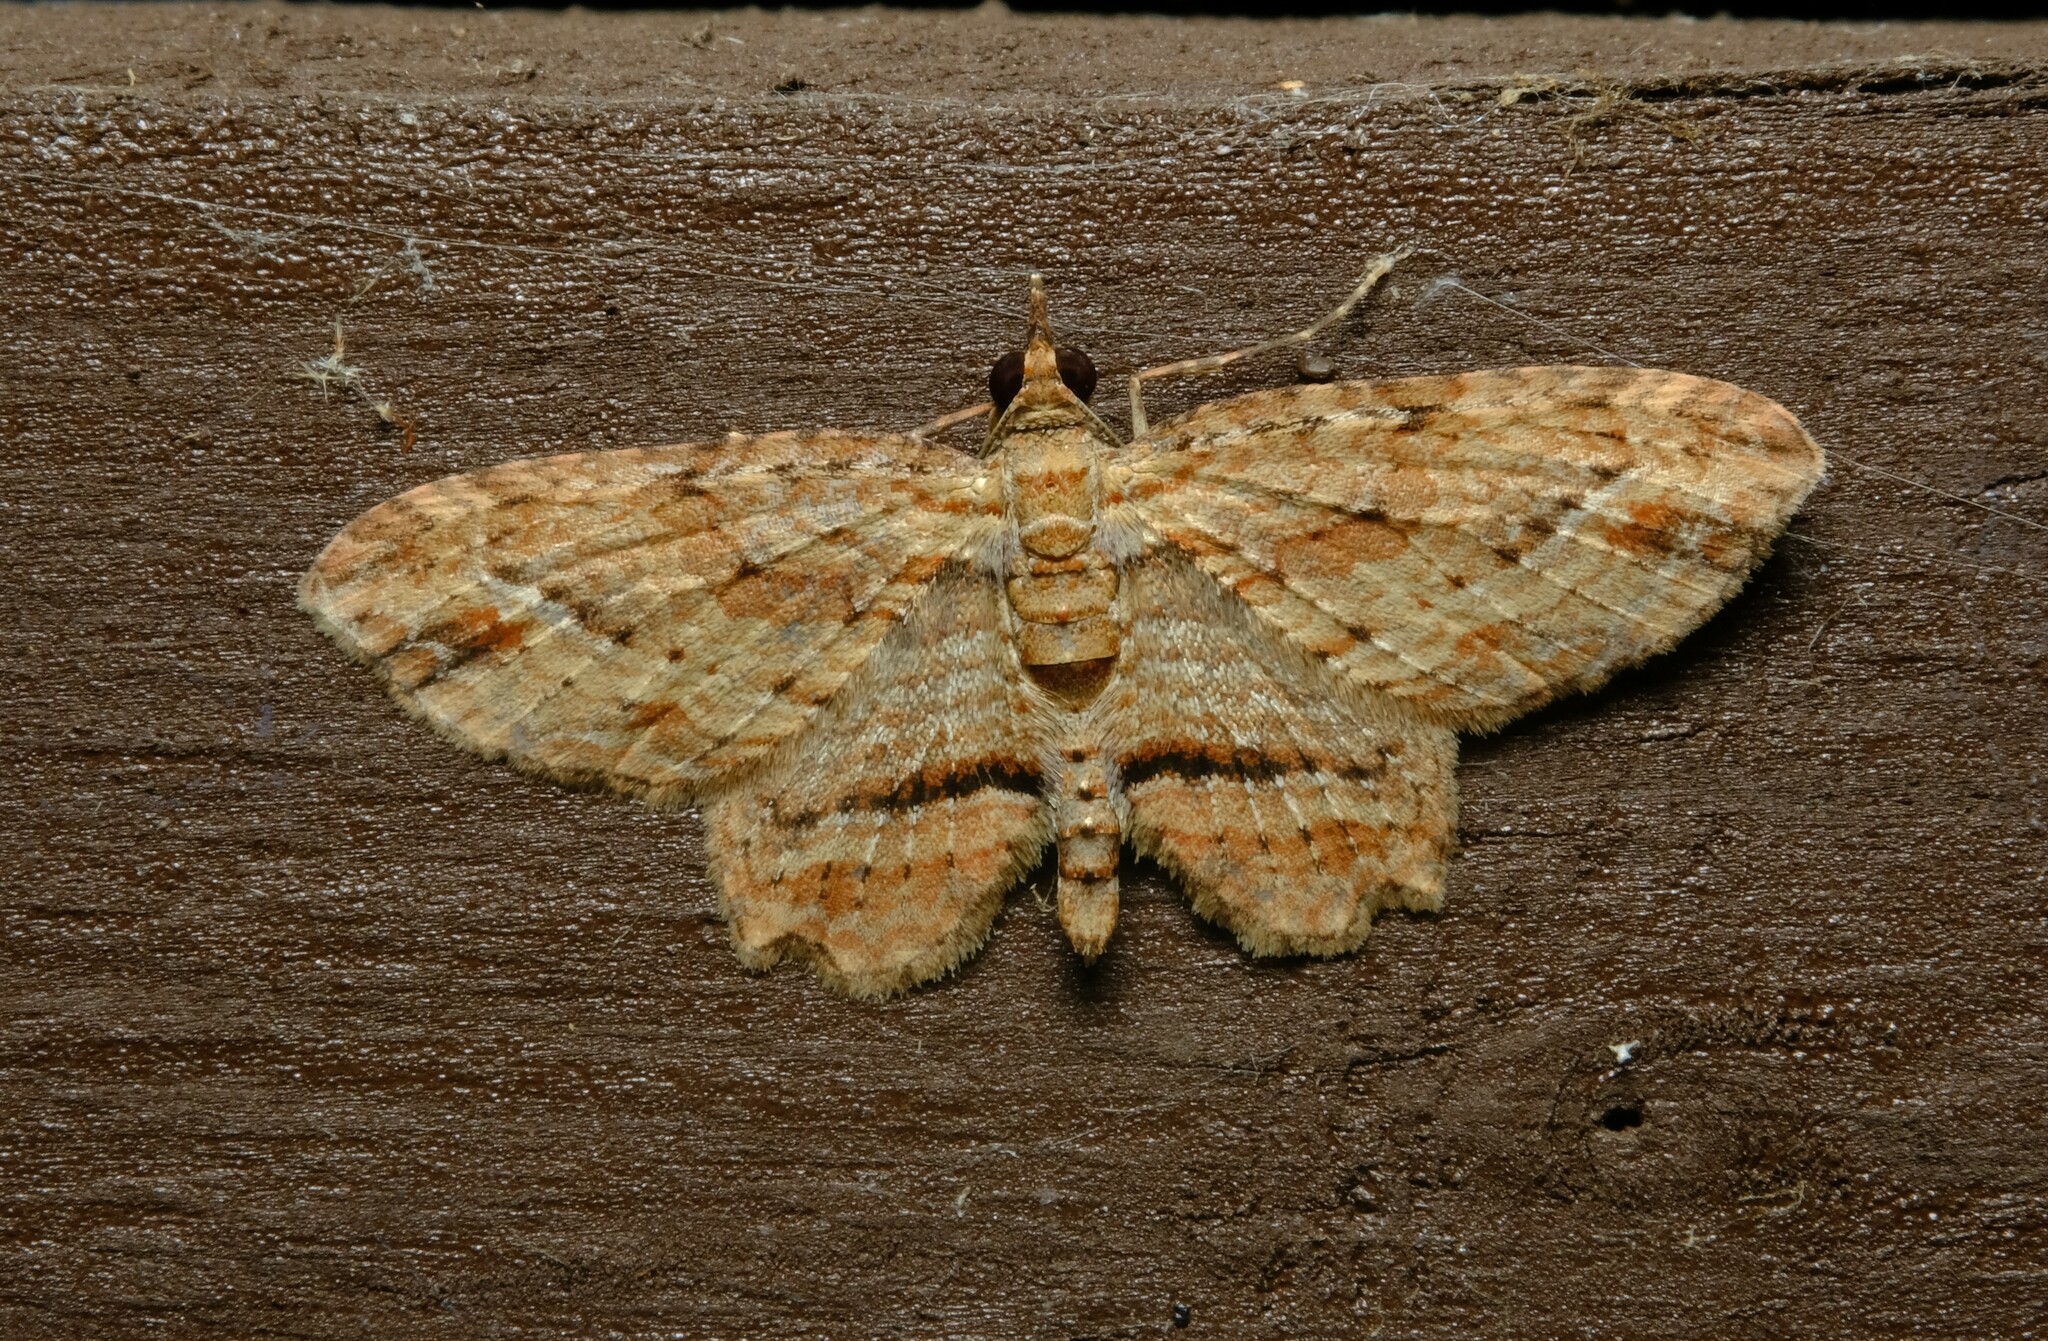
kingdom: Animalia
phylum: Arthropoda
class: Insecta
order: Lepidoptera
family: Geometridae
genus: Chloroclystis
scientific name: Chloroclystis filata
